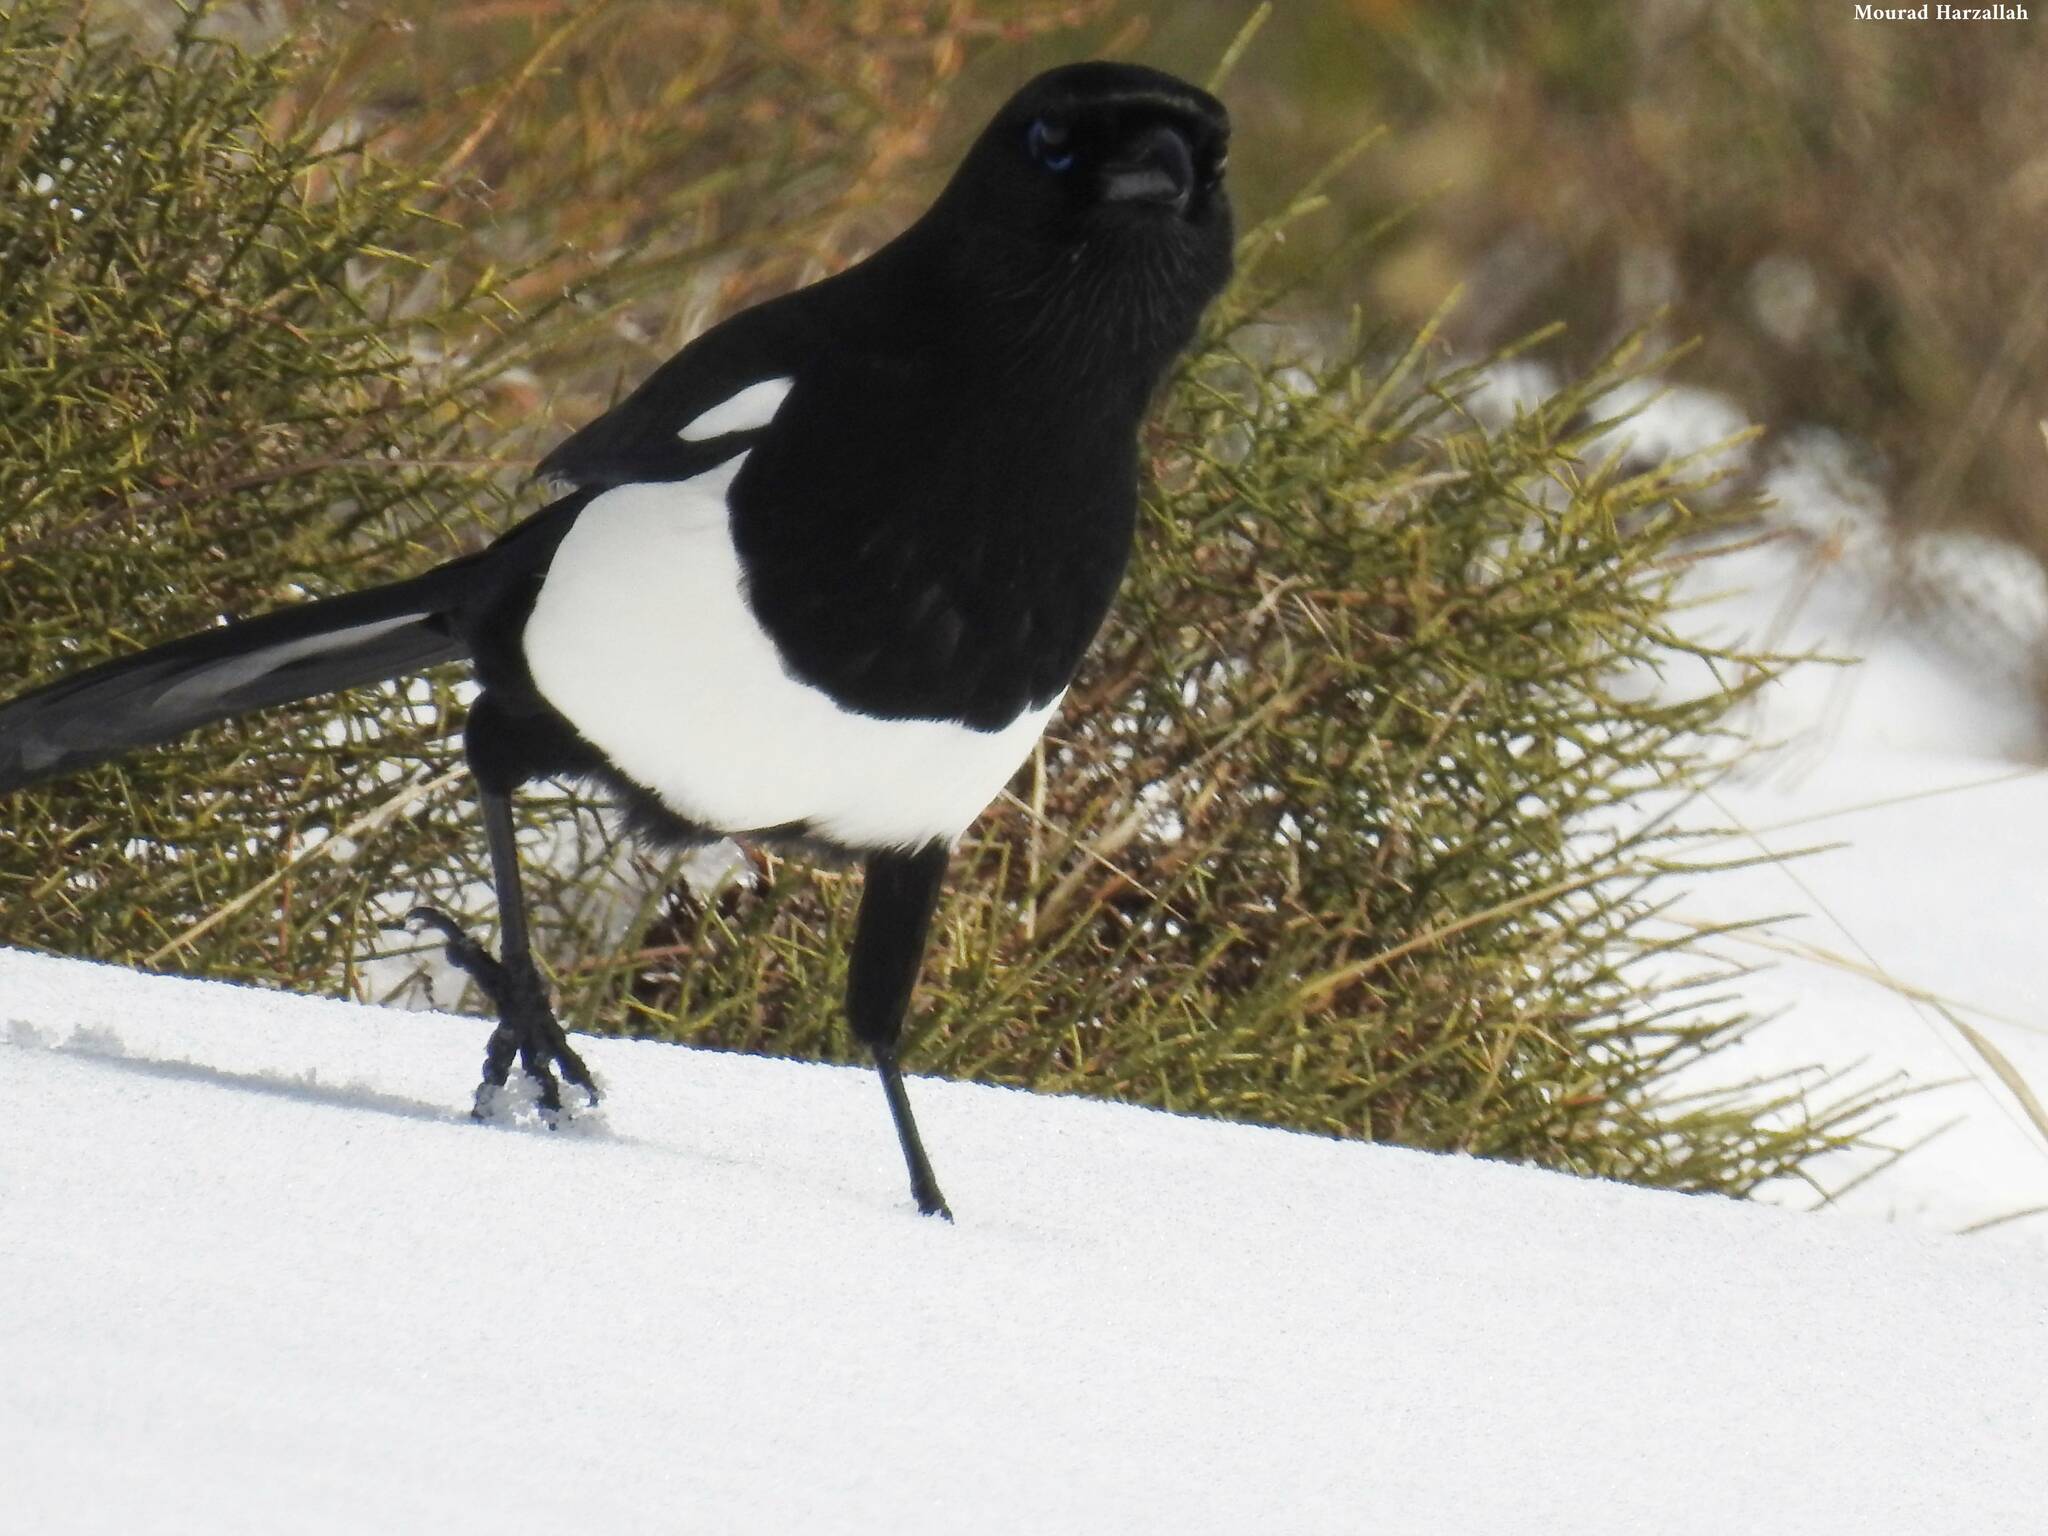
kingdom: Animalia
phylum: Chordata
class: Aves
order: Passeriformes
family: Corvidae
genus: Pica
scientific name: Pica mauritanica
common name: Maghreb magpie
